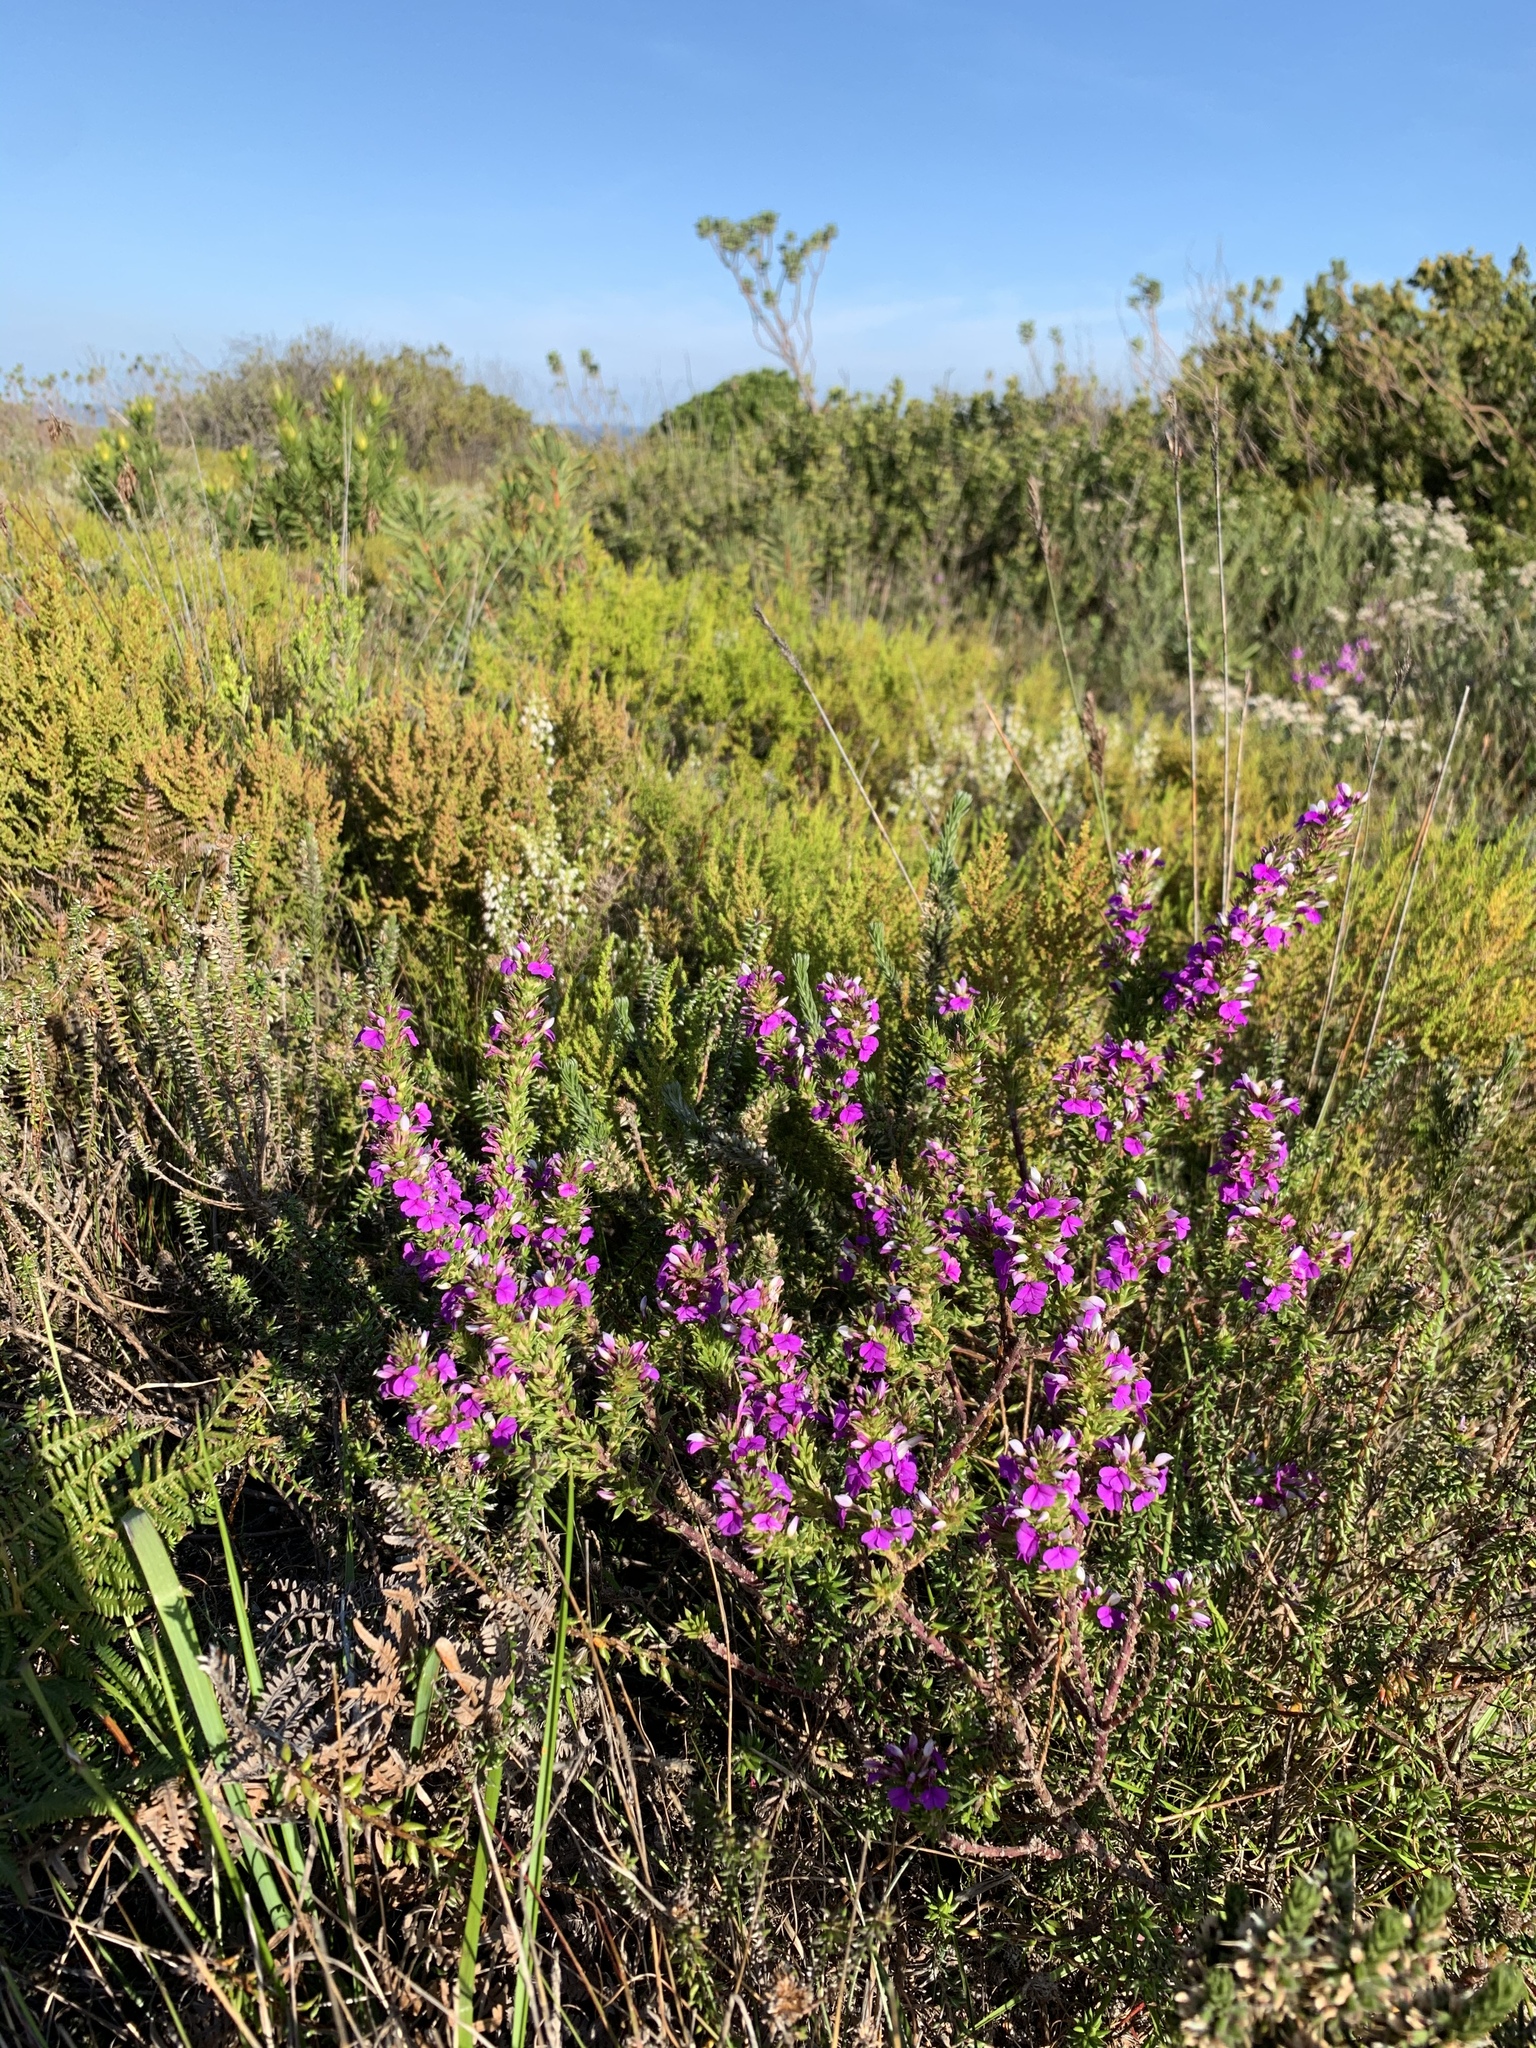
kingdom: Plantae
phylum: Tracheophyta
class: Magnoliopsida
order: Fabales
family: Polygalaceae
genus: Muraltia
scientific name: Muraltia heisteria
